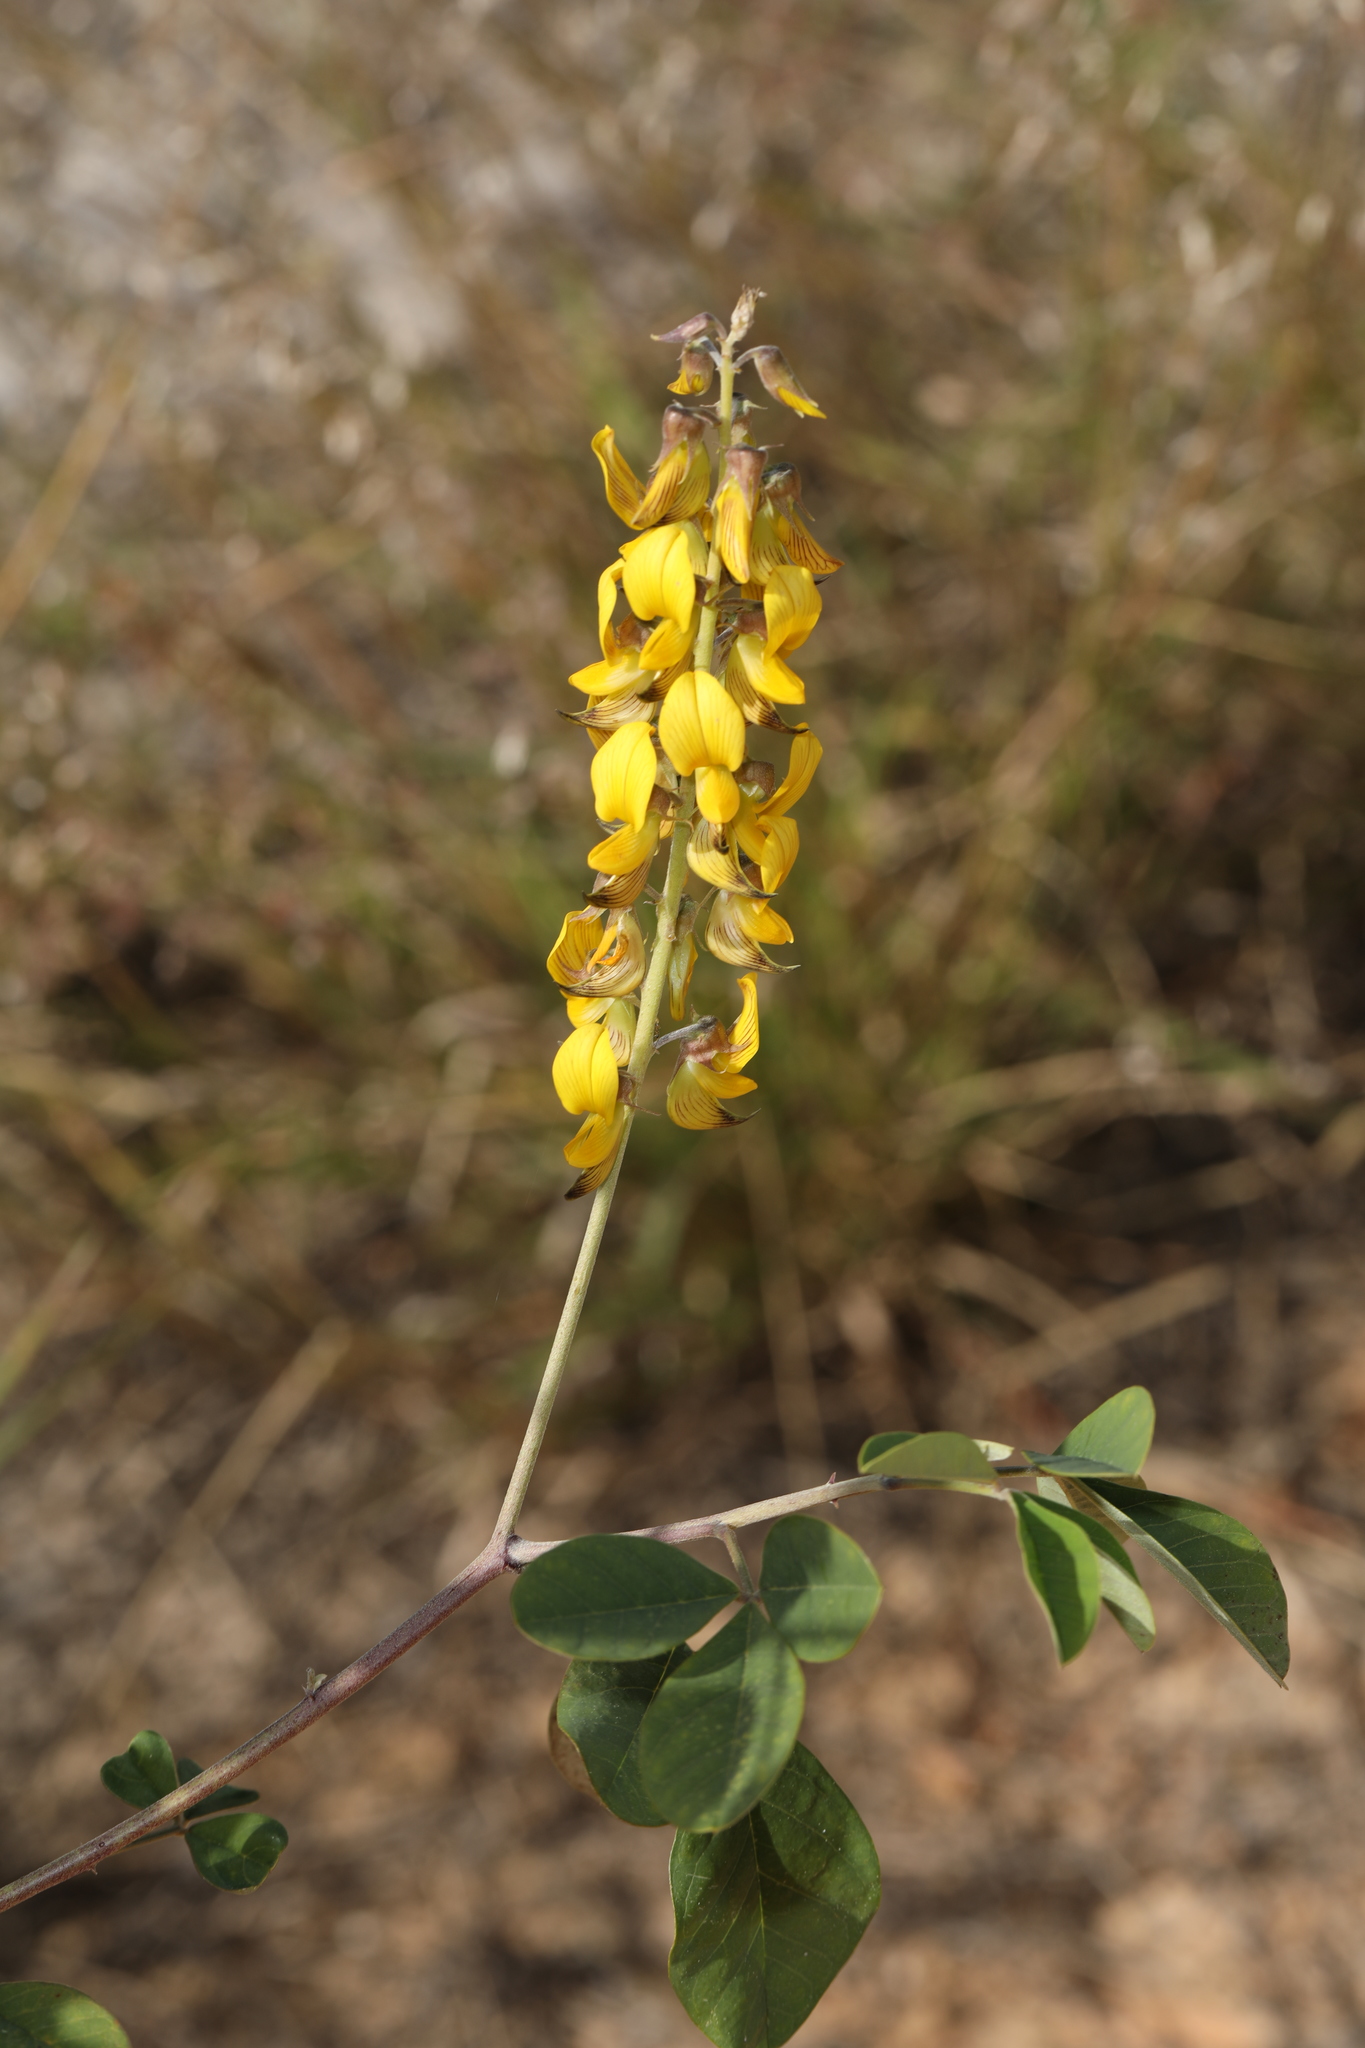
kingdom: Plantae
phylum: Tracheophyta
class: Magnoliopsida
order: Fabales
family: Fabaceae
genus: Crotalaria
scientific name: Crotalaria pallida
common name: Smooth rattlebox
